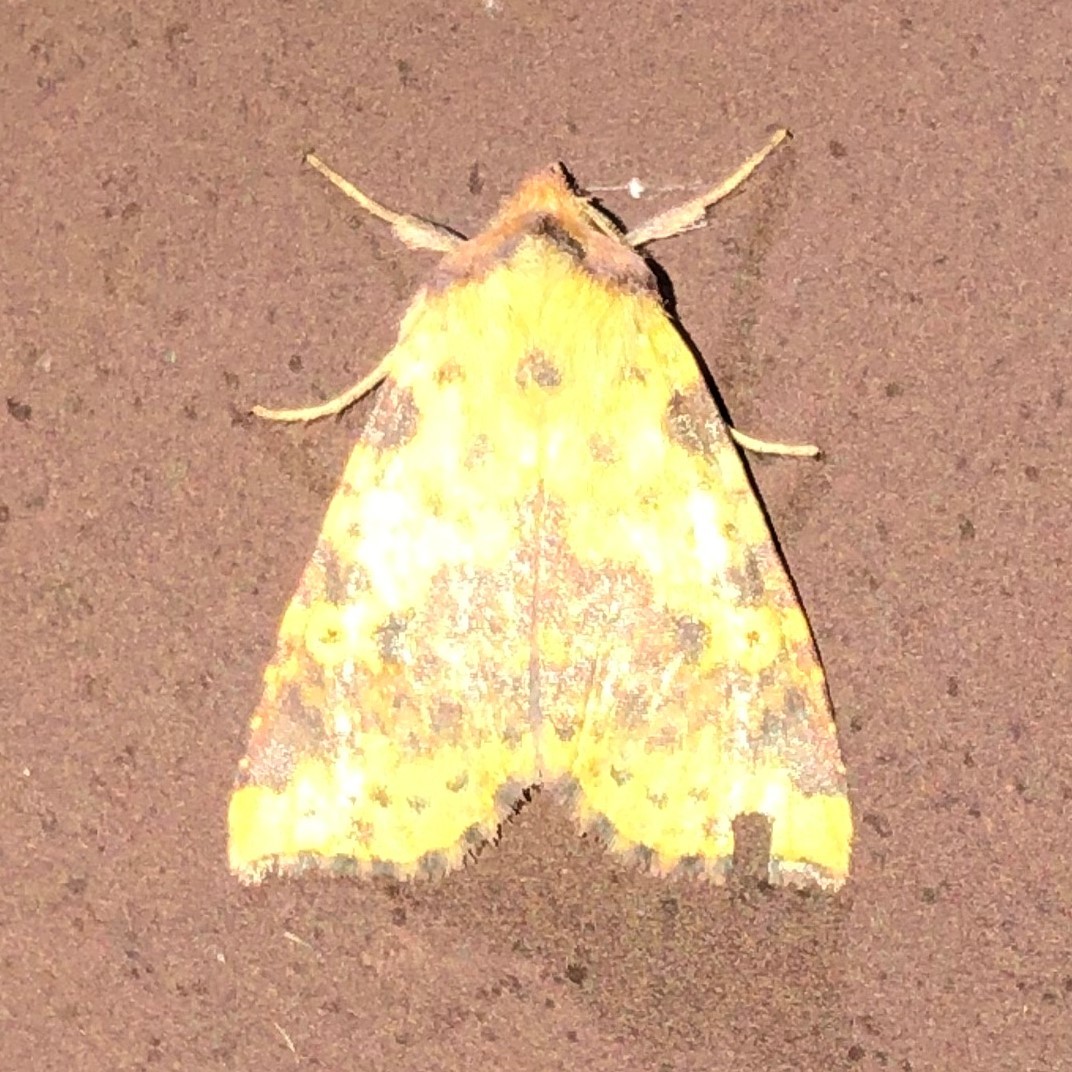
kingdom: Animalia
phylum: Arthropoda
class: Insecta
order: Lepidoptera
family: Noctuidae
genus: Xanthia
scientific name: Xanthia tatago
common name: Pink-banded sallow
